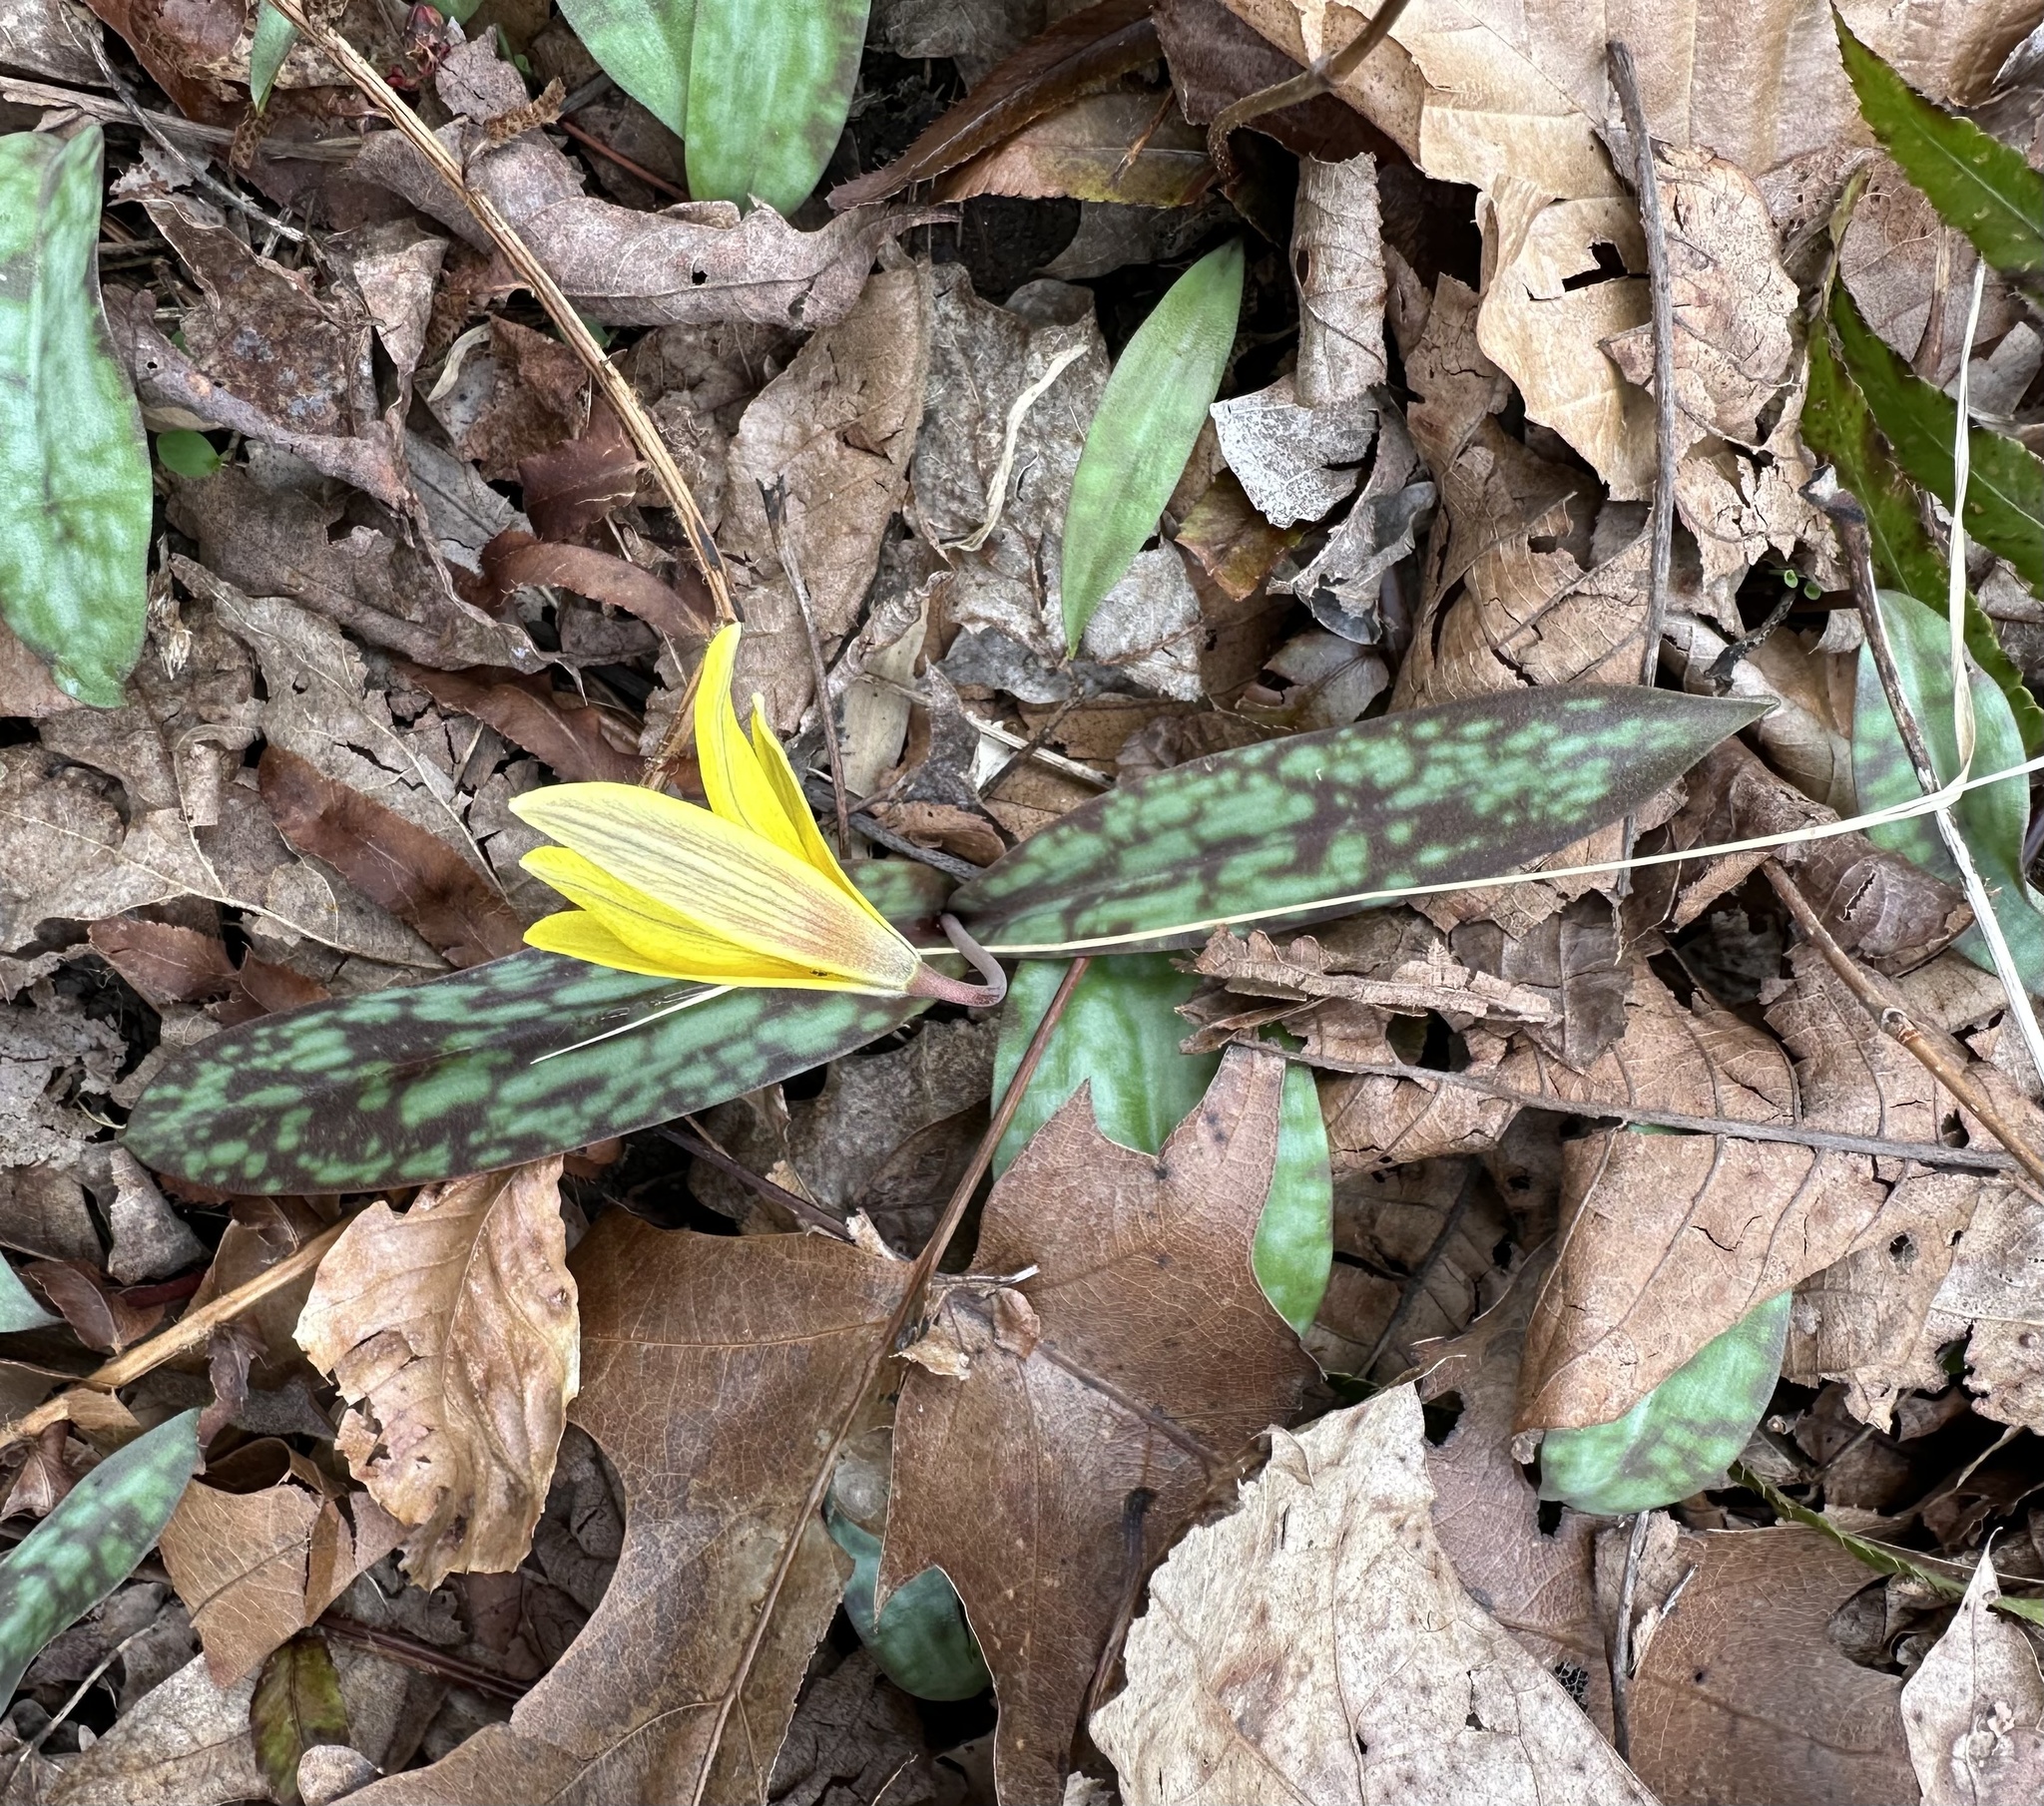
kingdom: Plantae
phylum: Tracheophyta
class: Liliopsida
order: Liliales
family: Liliaceae
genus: Erythronium
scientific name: Erythronium americanum
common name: Yellow adder's-tongue
